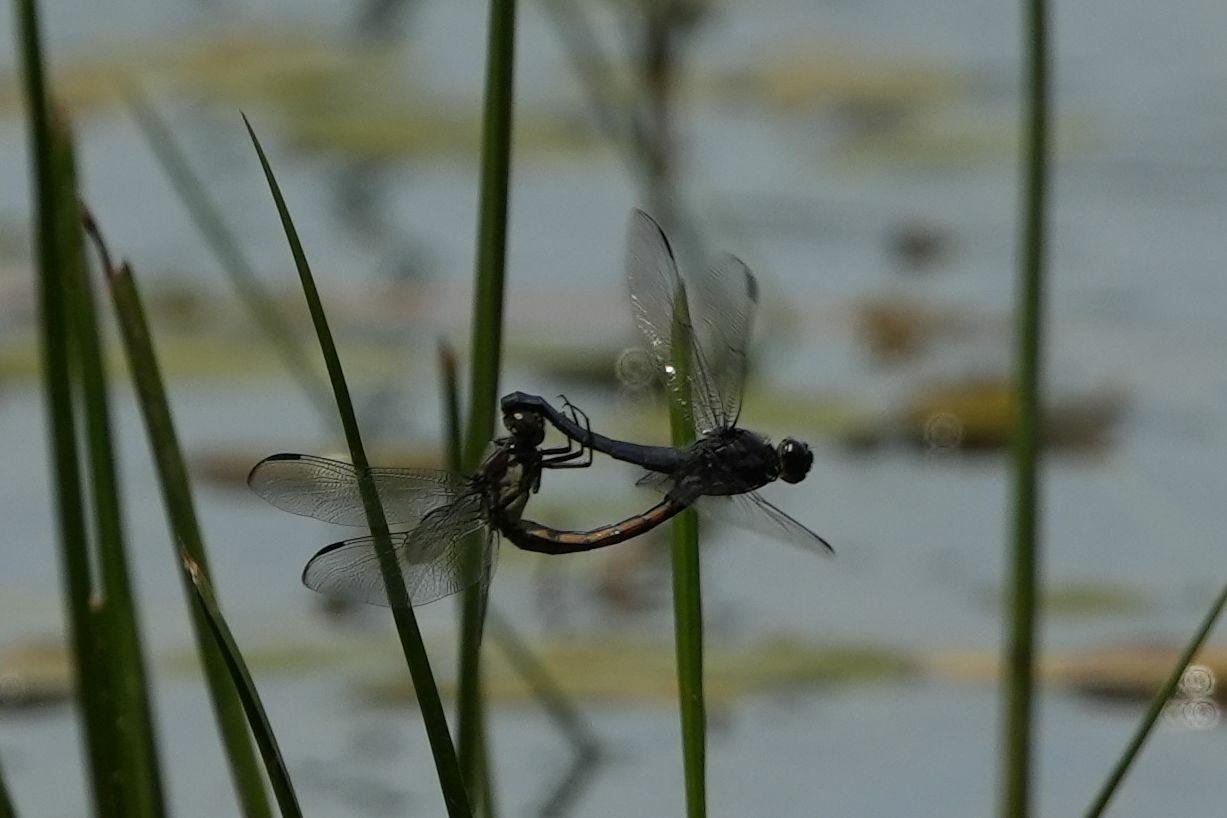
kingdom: Animalia
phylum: Arthropoda
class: Insecta
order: Odonata
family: Libellulidae
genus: Libellula
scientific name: Libellula incesta
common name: Slaty skimmer
